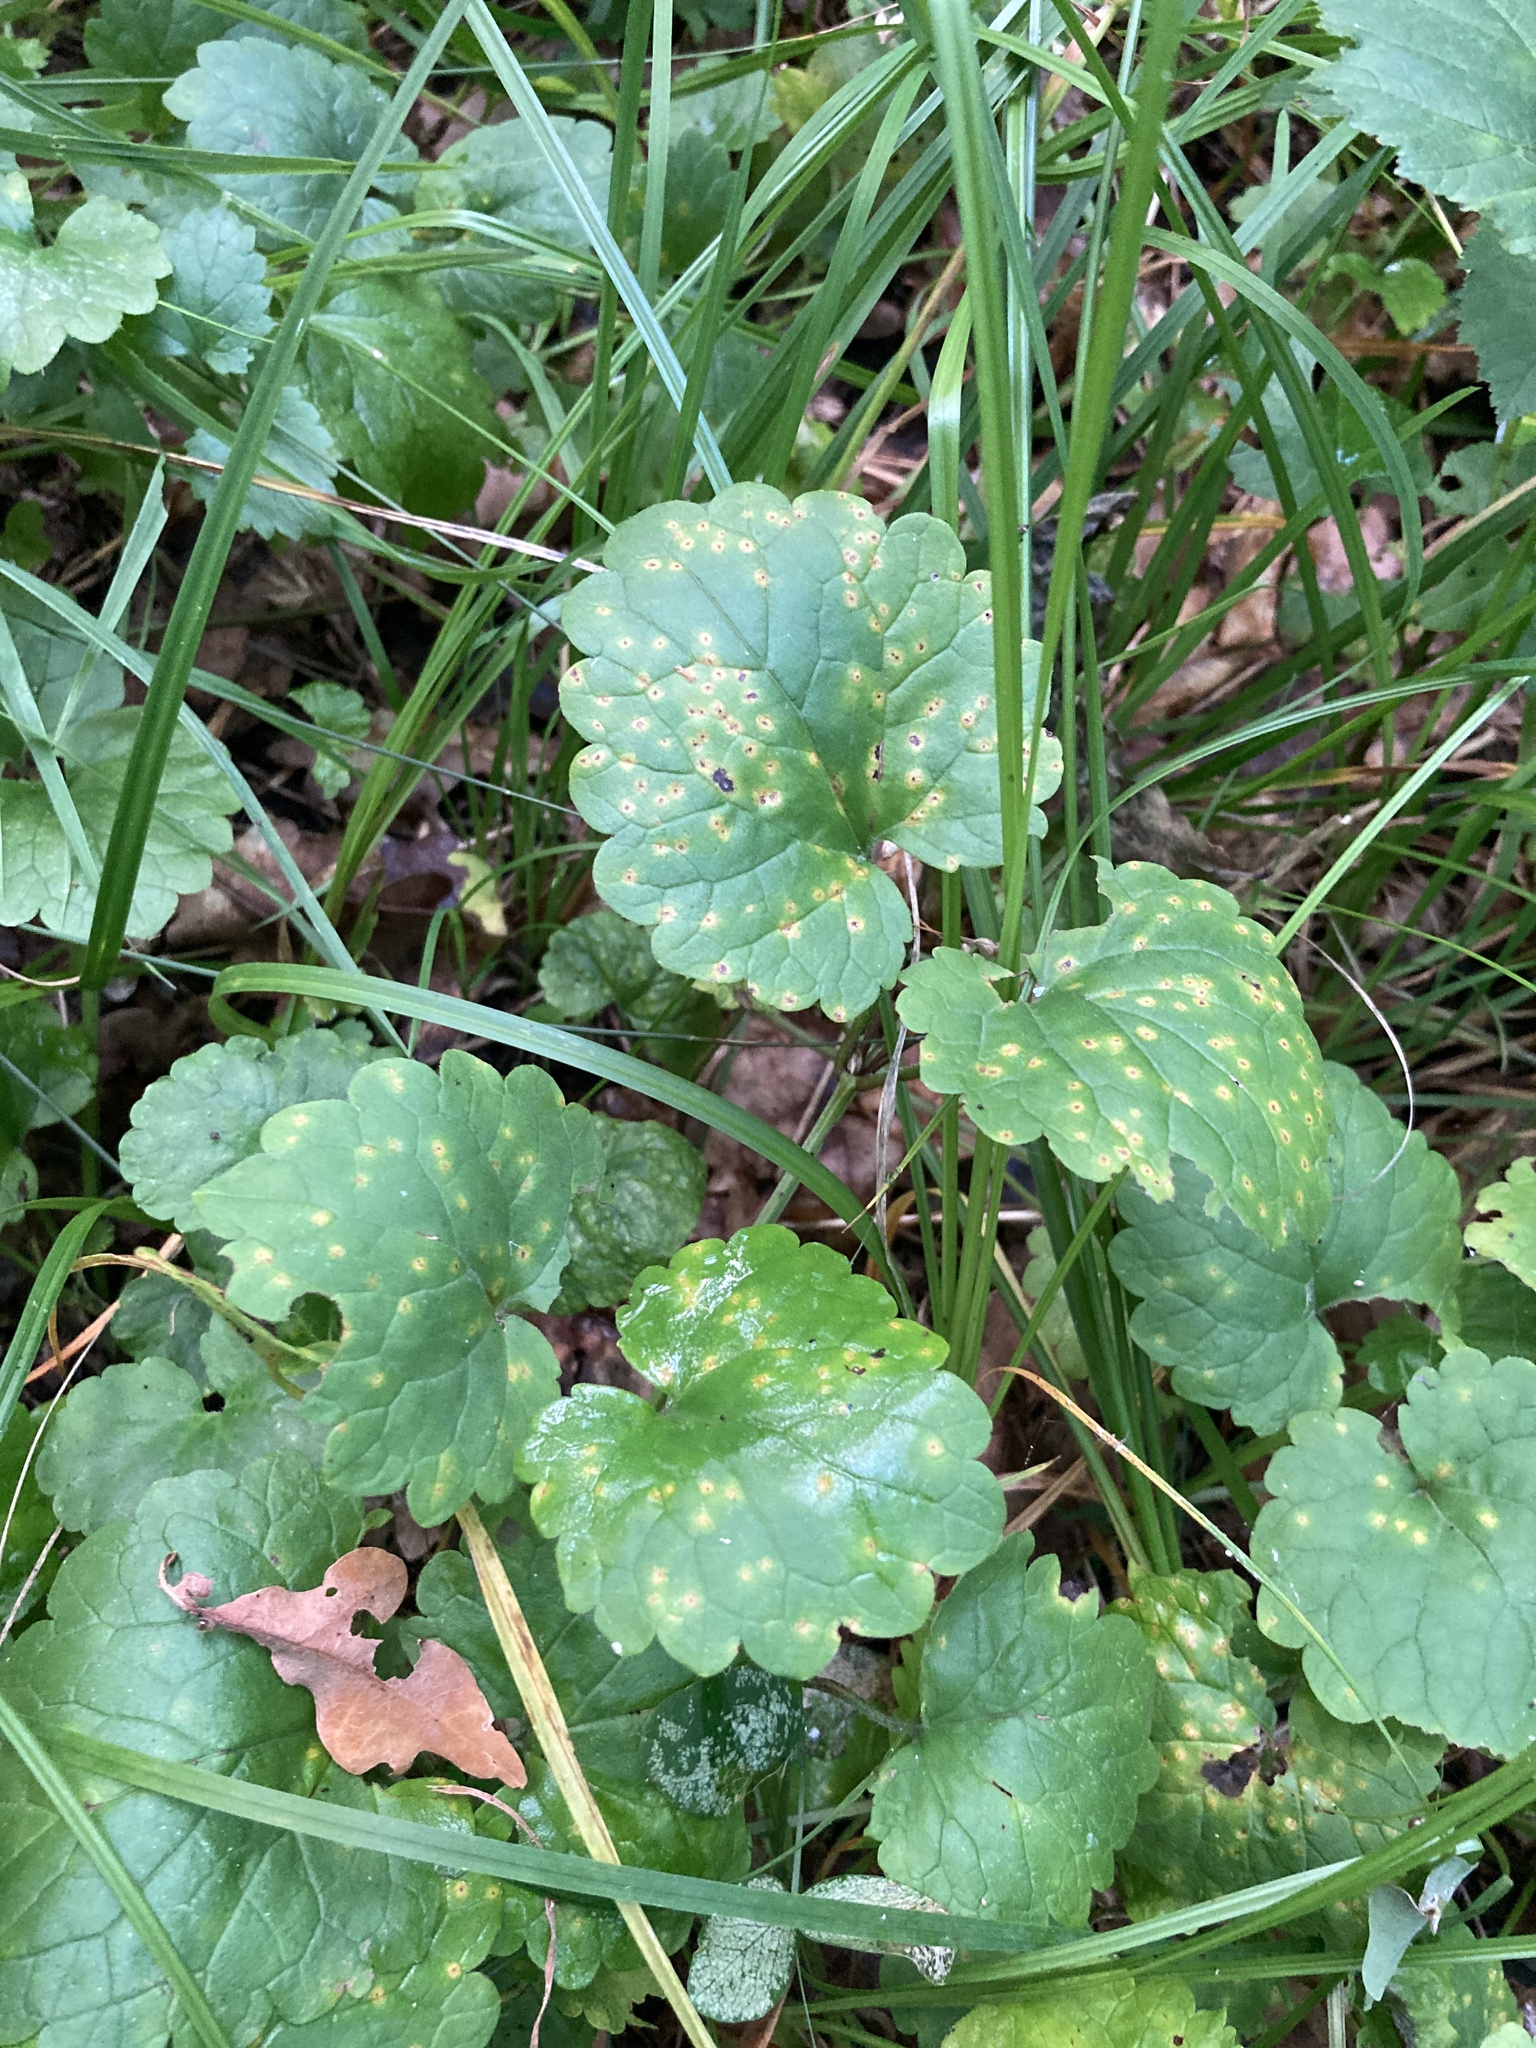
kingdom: Plantae
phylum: Tracheophyta
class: Magnoliopsida
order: Lamiales
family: Lamiaceae
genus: Glechoma
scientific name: Glechoma hederacea
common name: Ground ivy
